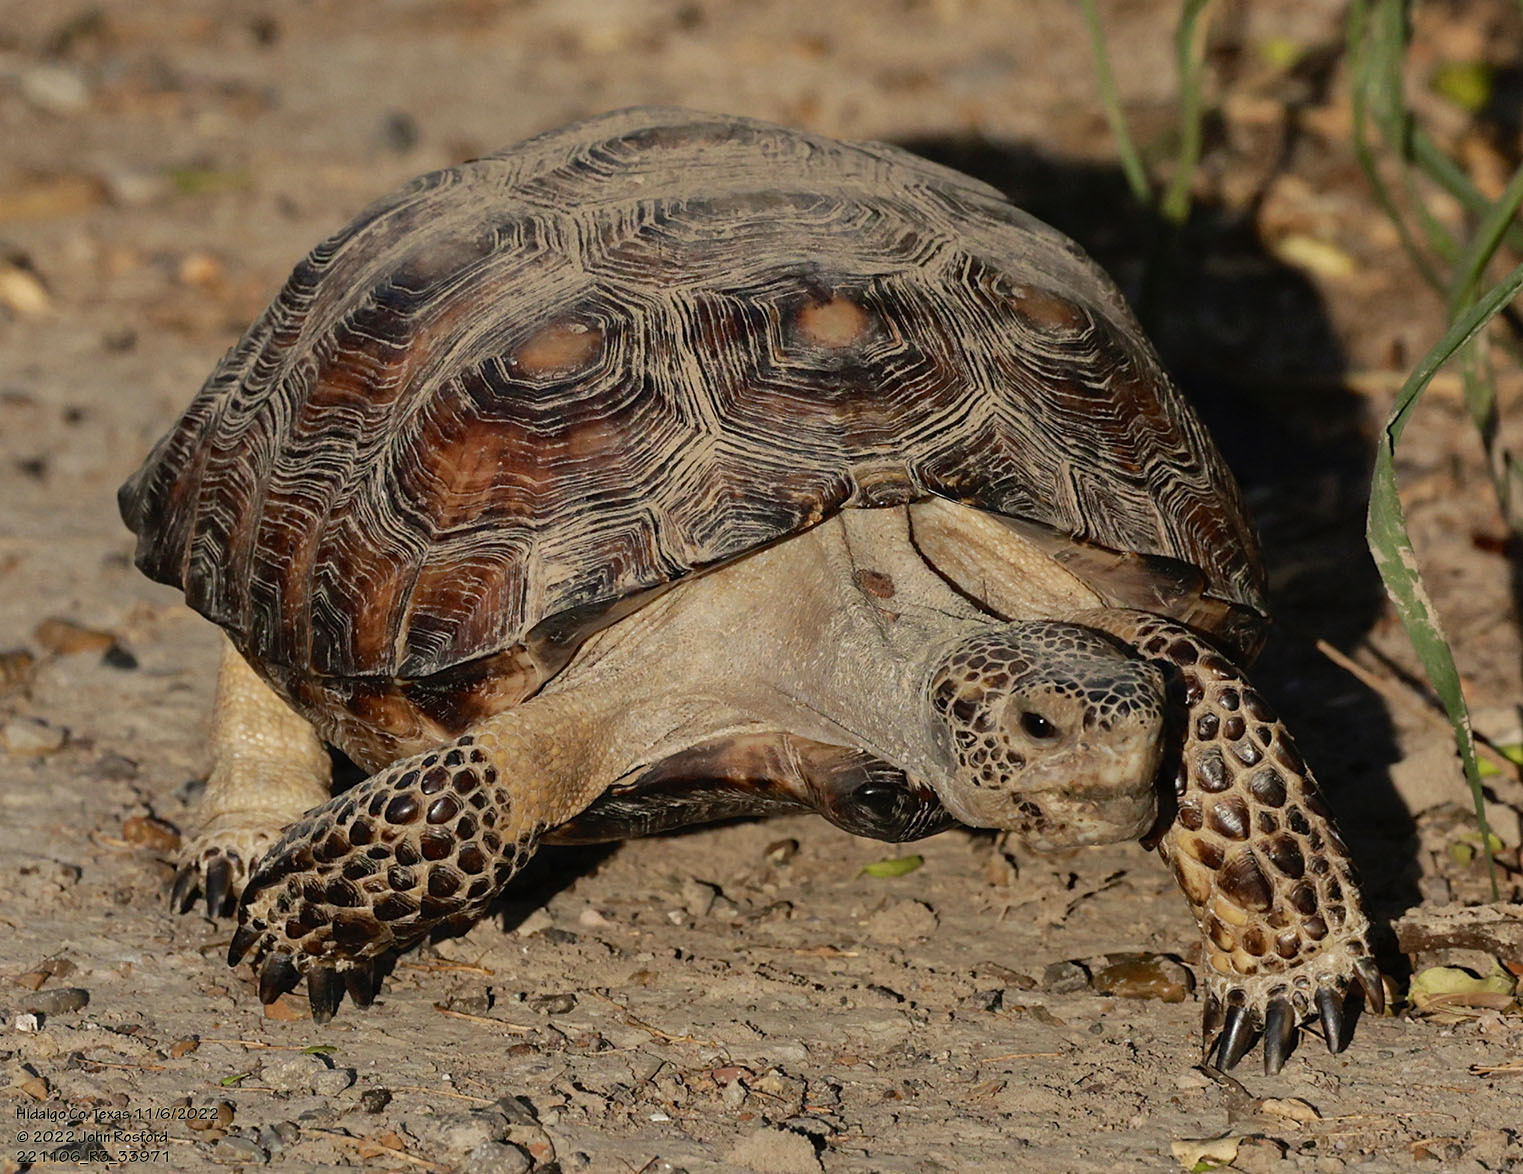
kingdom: Animalia
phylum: Chordata
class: Testudines
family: Testudinidae
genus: Gopherus
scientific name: Gopherus berlandieri
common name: Texas (gopher )tortoise
